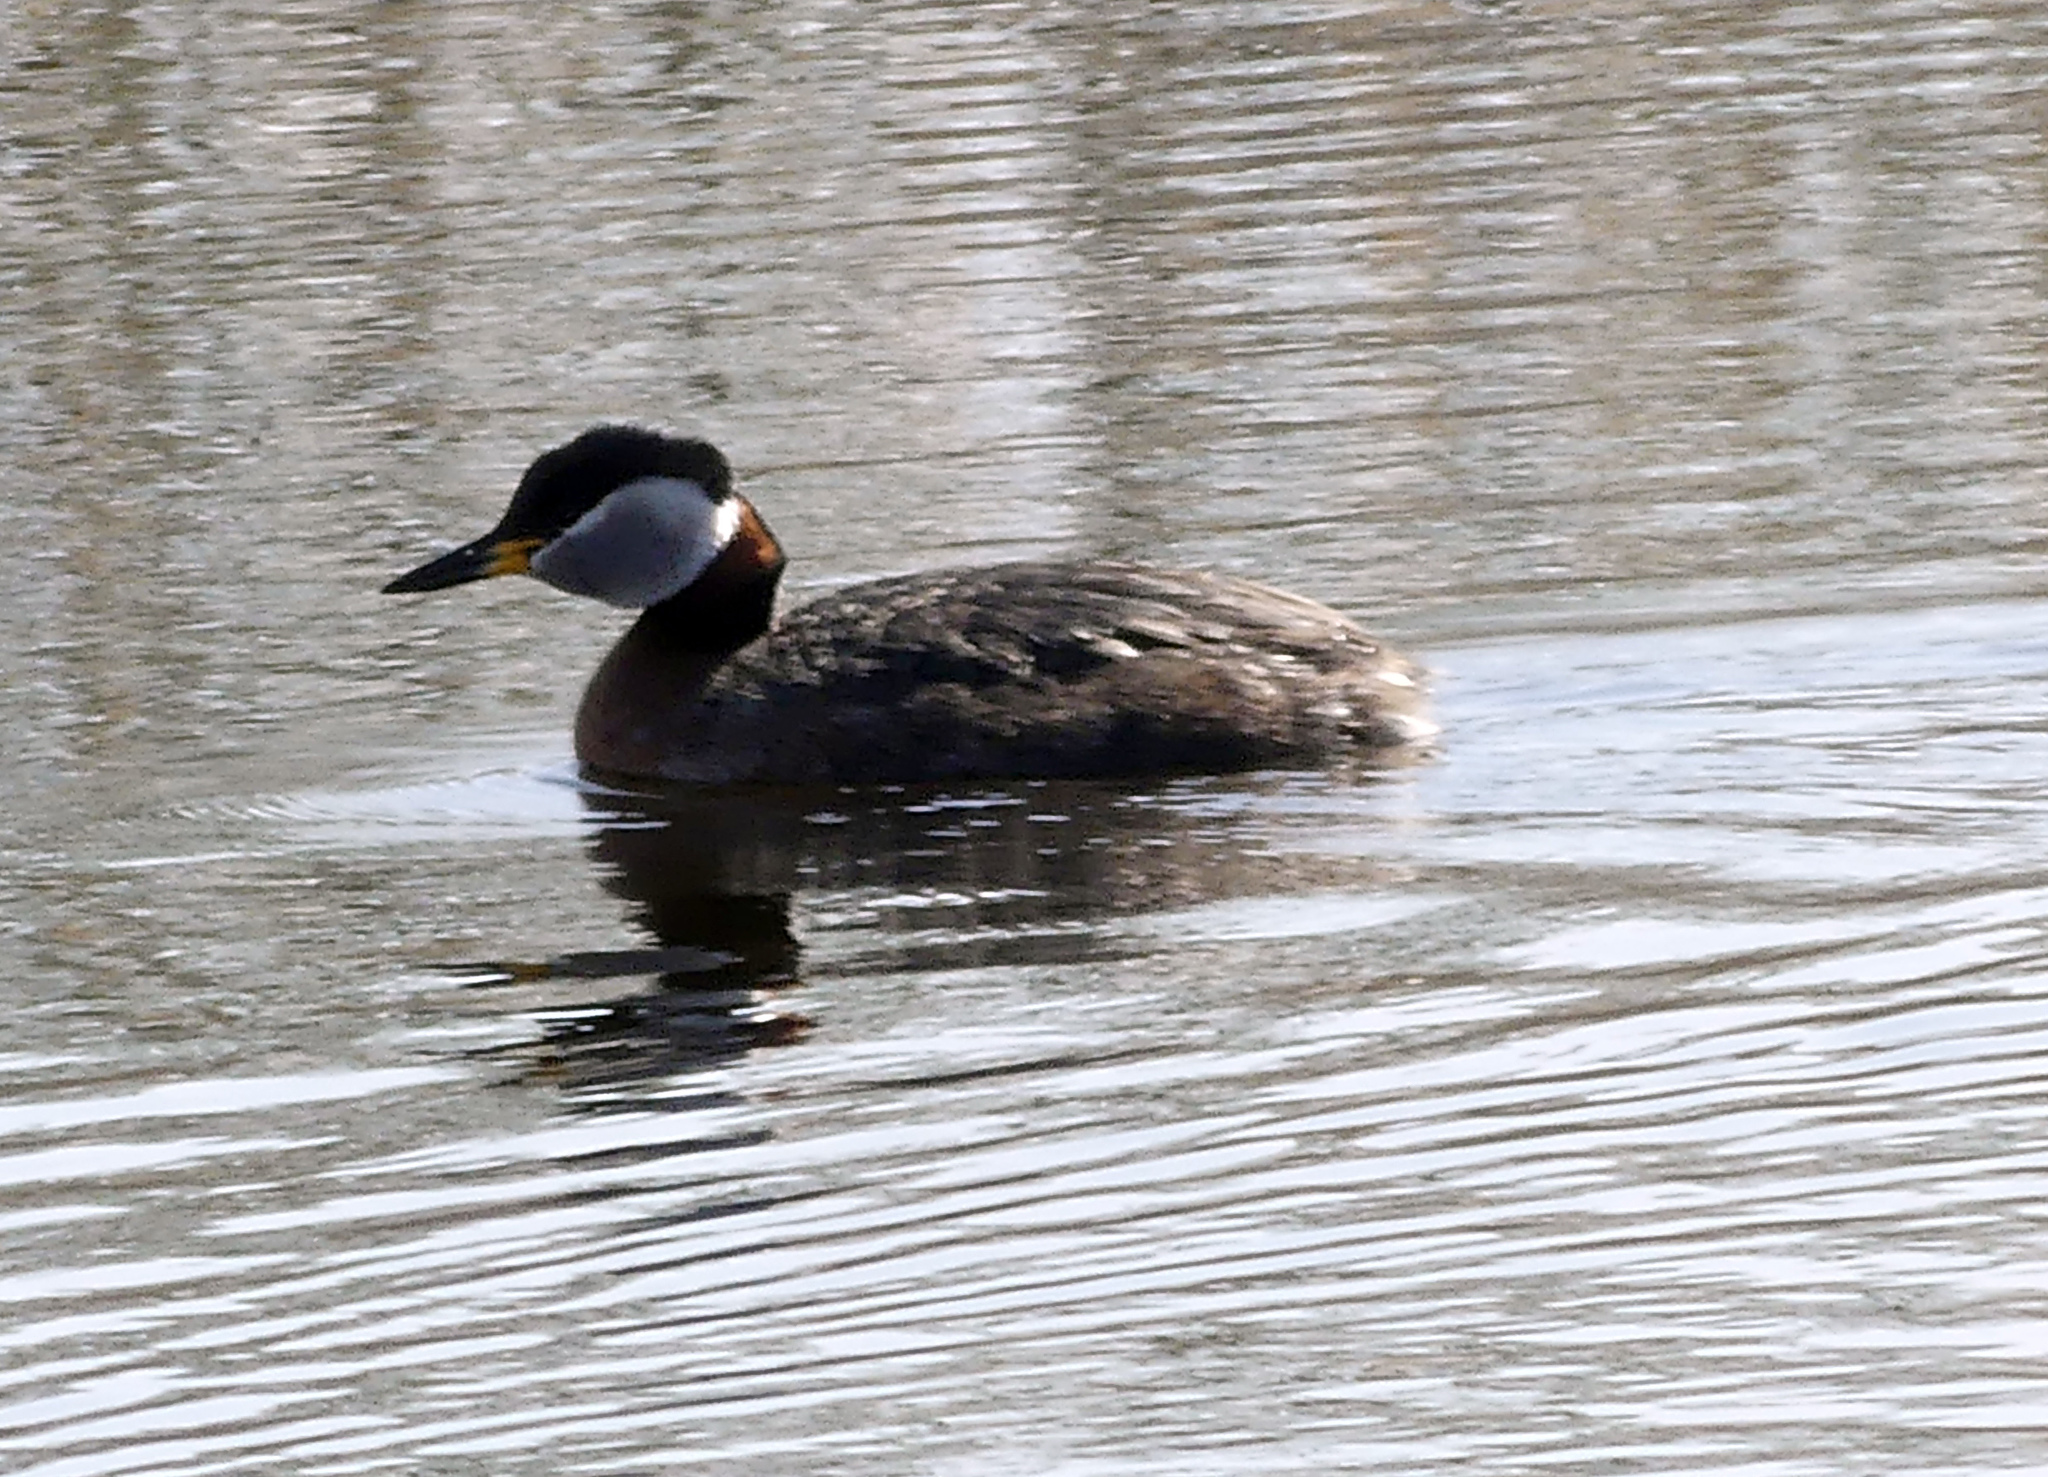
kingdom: Animalia
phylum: Chordata
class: Aves
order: Podicipediformes
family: Podicipedidae
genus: Podiceps
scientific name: Podiceps grisegena
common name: Red-necked grebe
